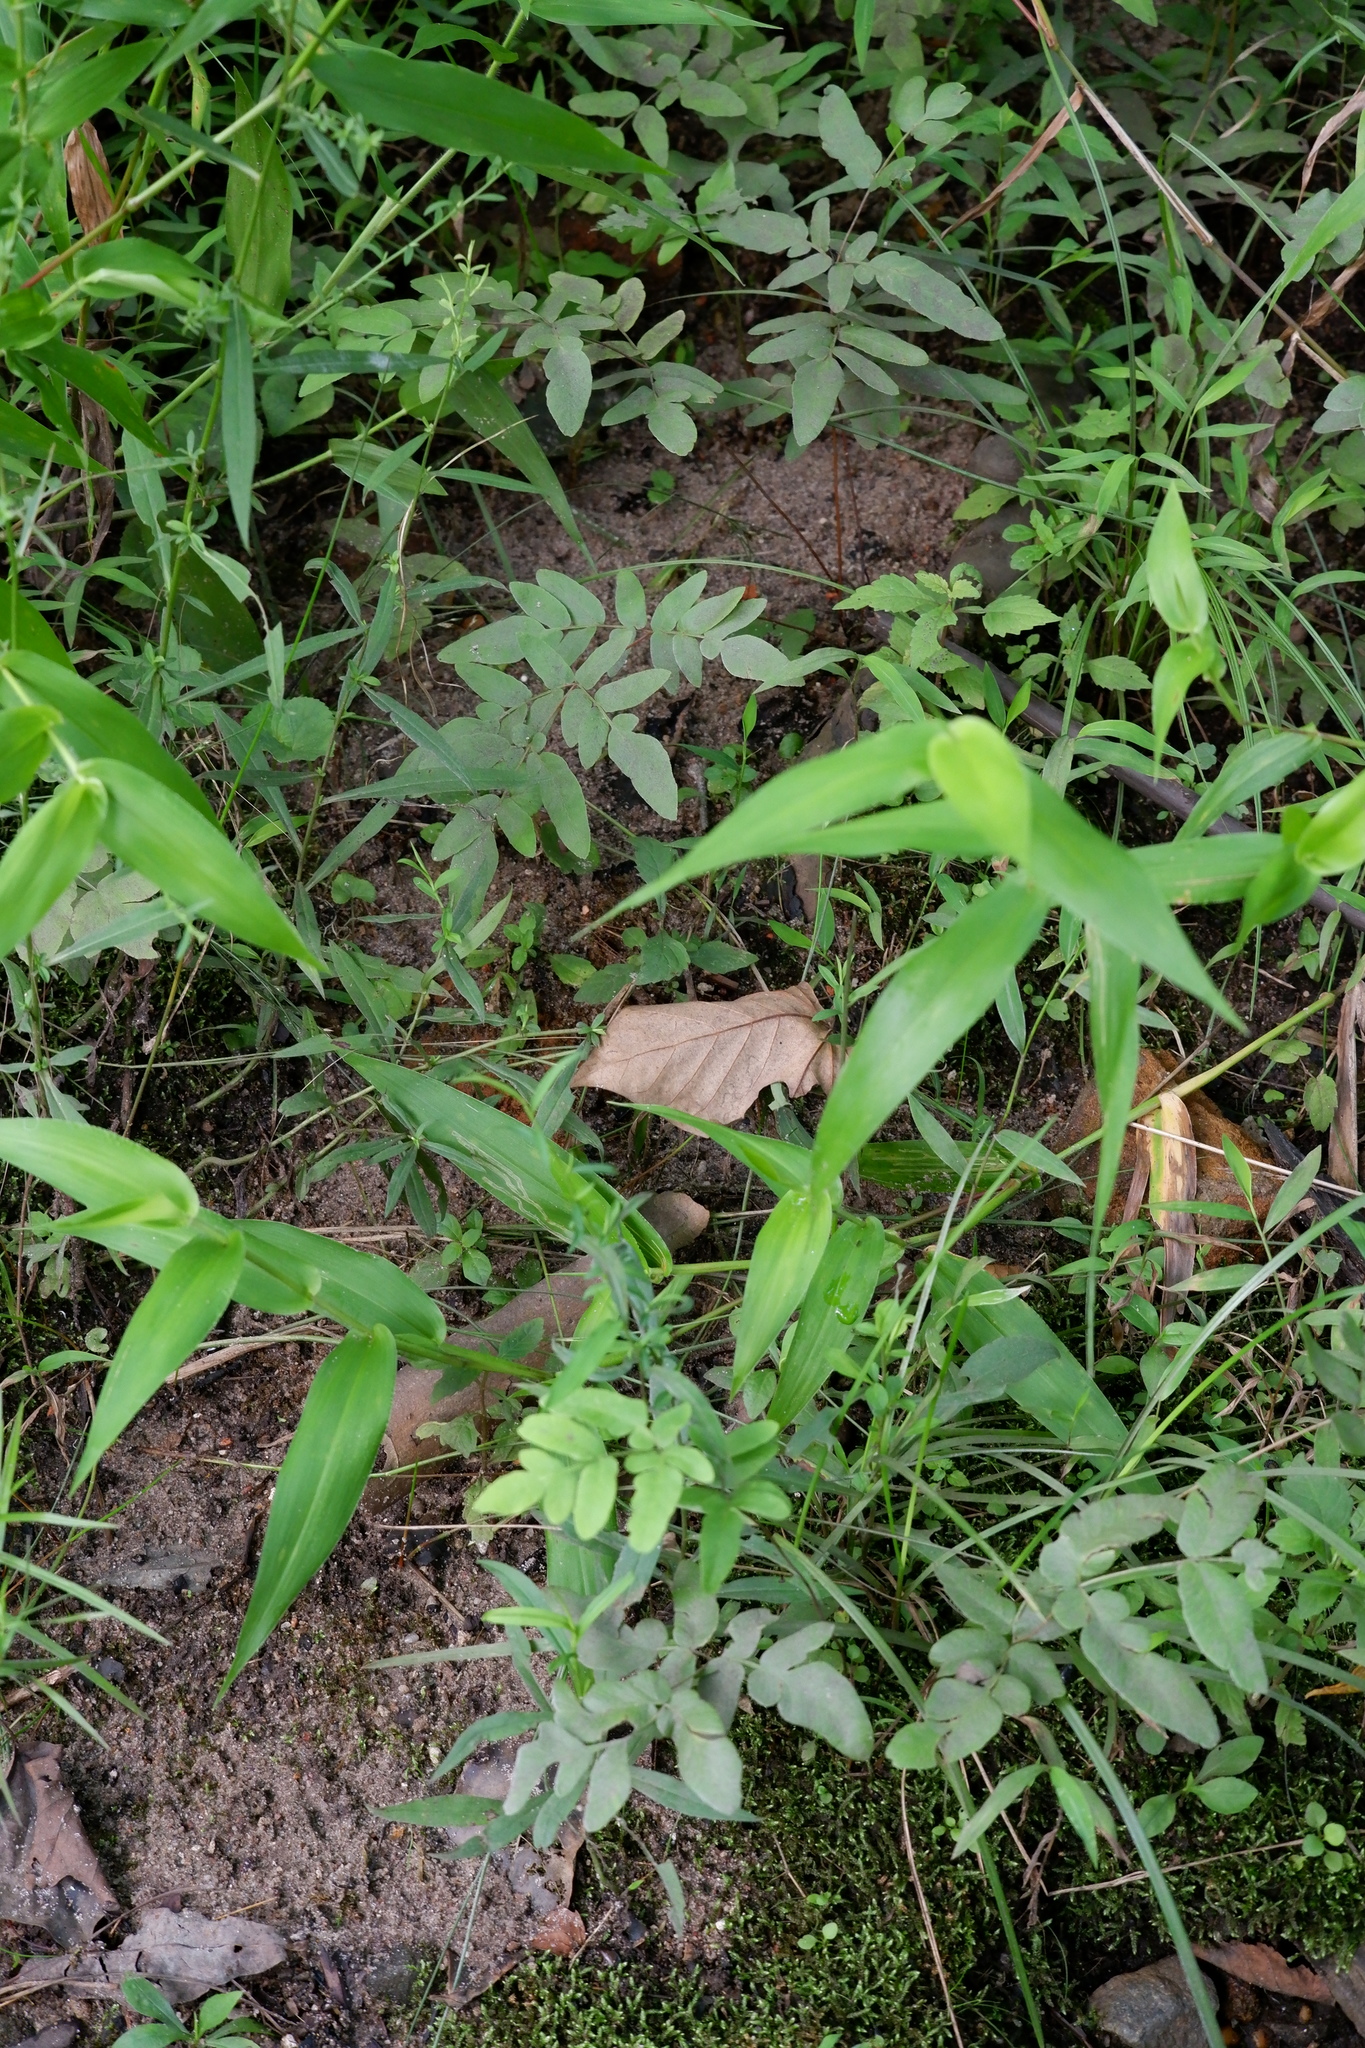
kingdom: Plantae
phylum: Tracheophyta
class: Polypodiopsida
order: Osmundales
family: Osmundaceae
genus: Osmunda
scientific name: Osmunda spectabilis
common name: American royal fern
